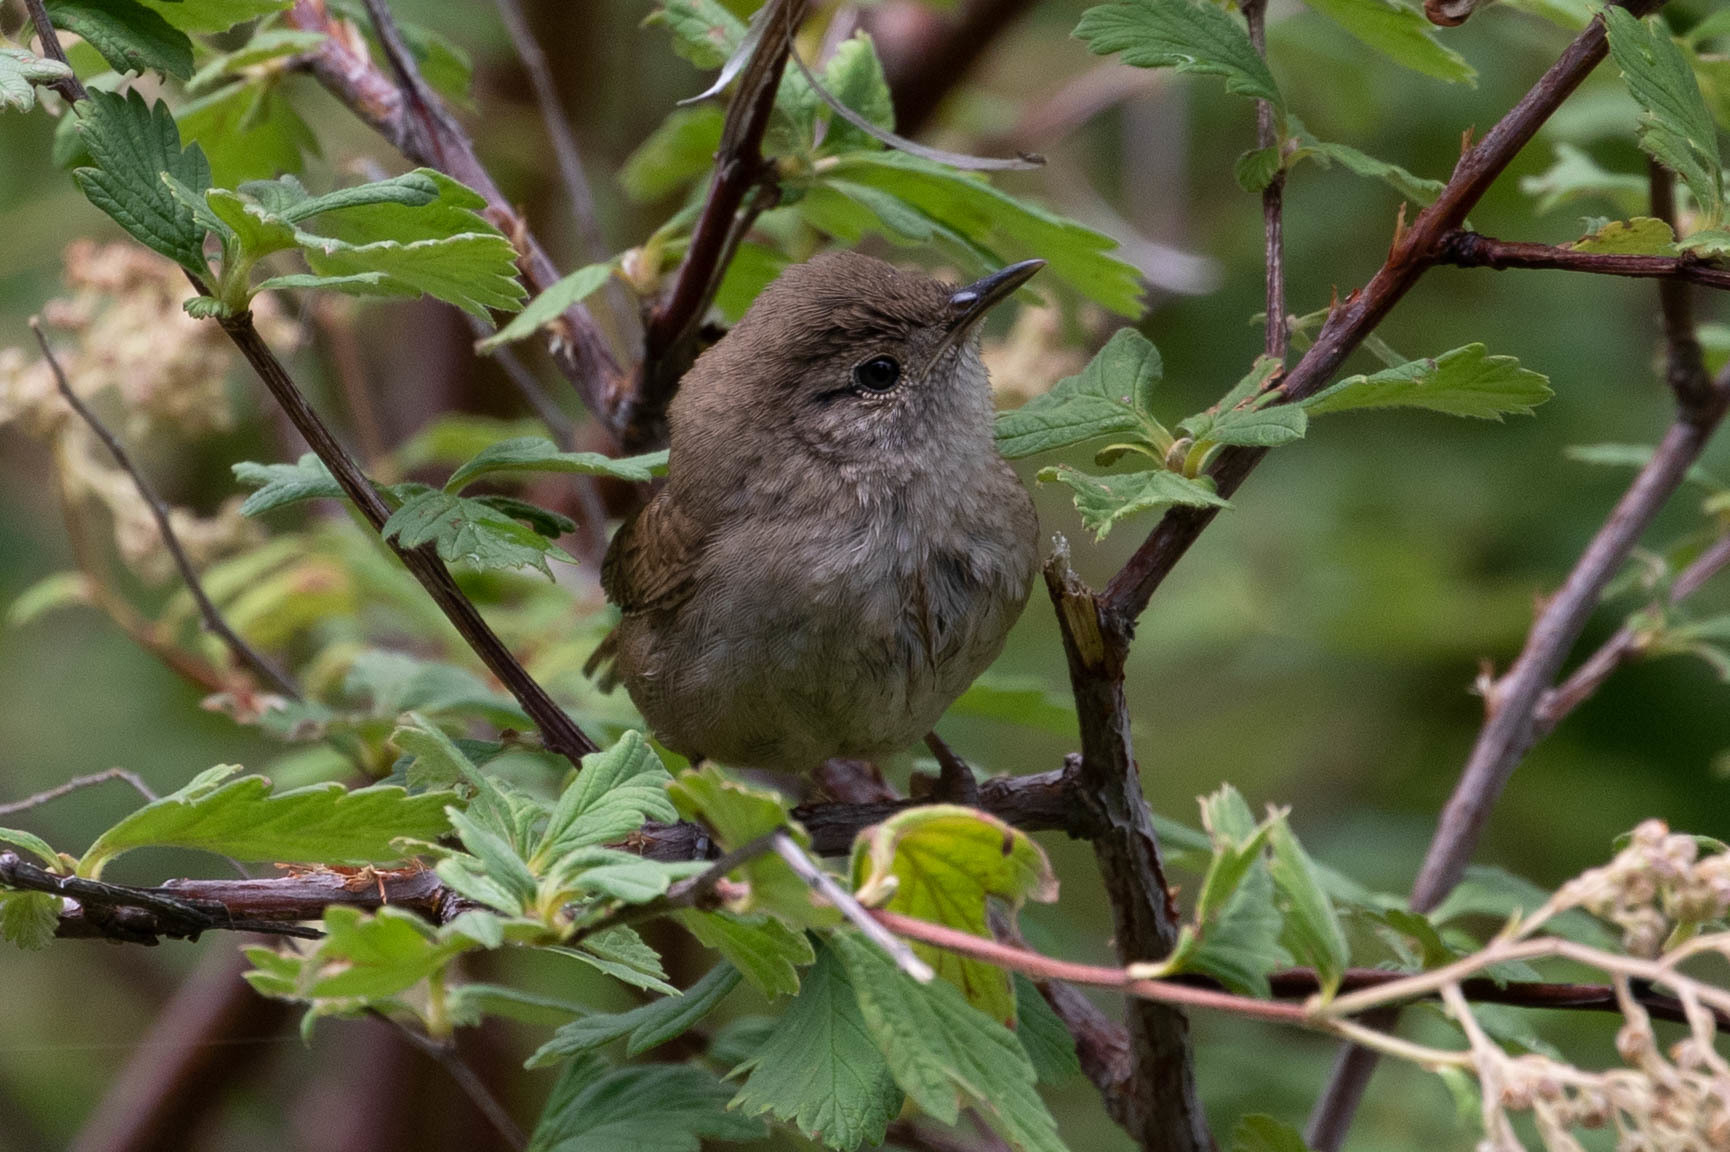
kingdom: Animalia
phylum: Chordata
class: Aves
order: Passeriformes
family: Troglodytidae
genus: Troglodytes
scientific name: Troglodytes aedon
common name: House wren
